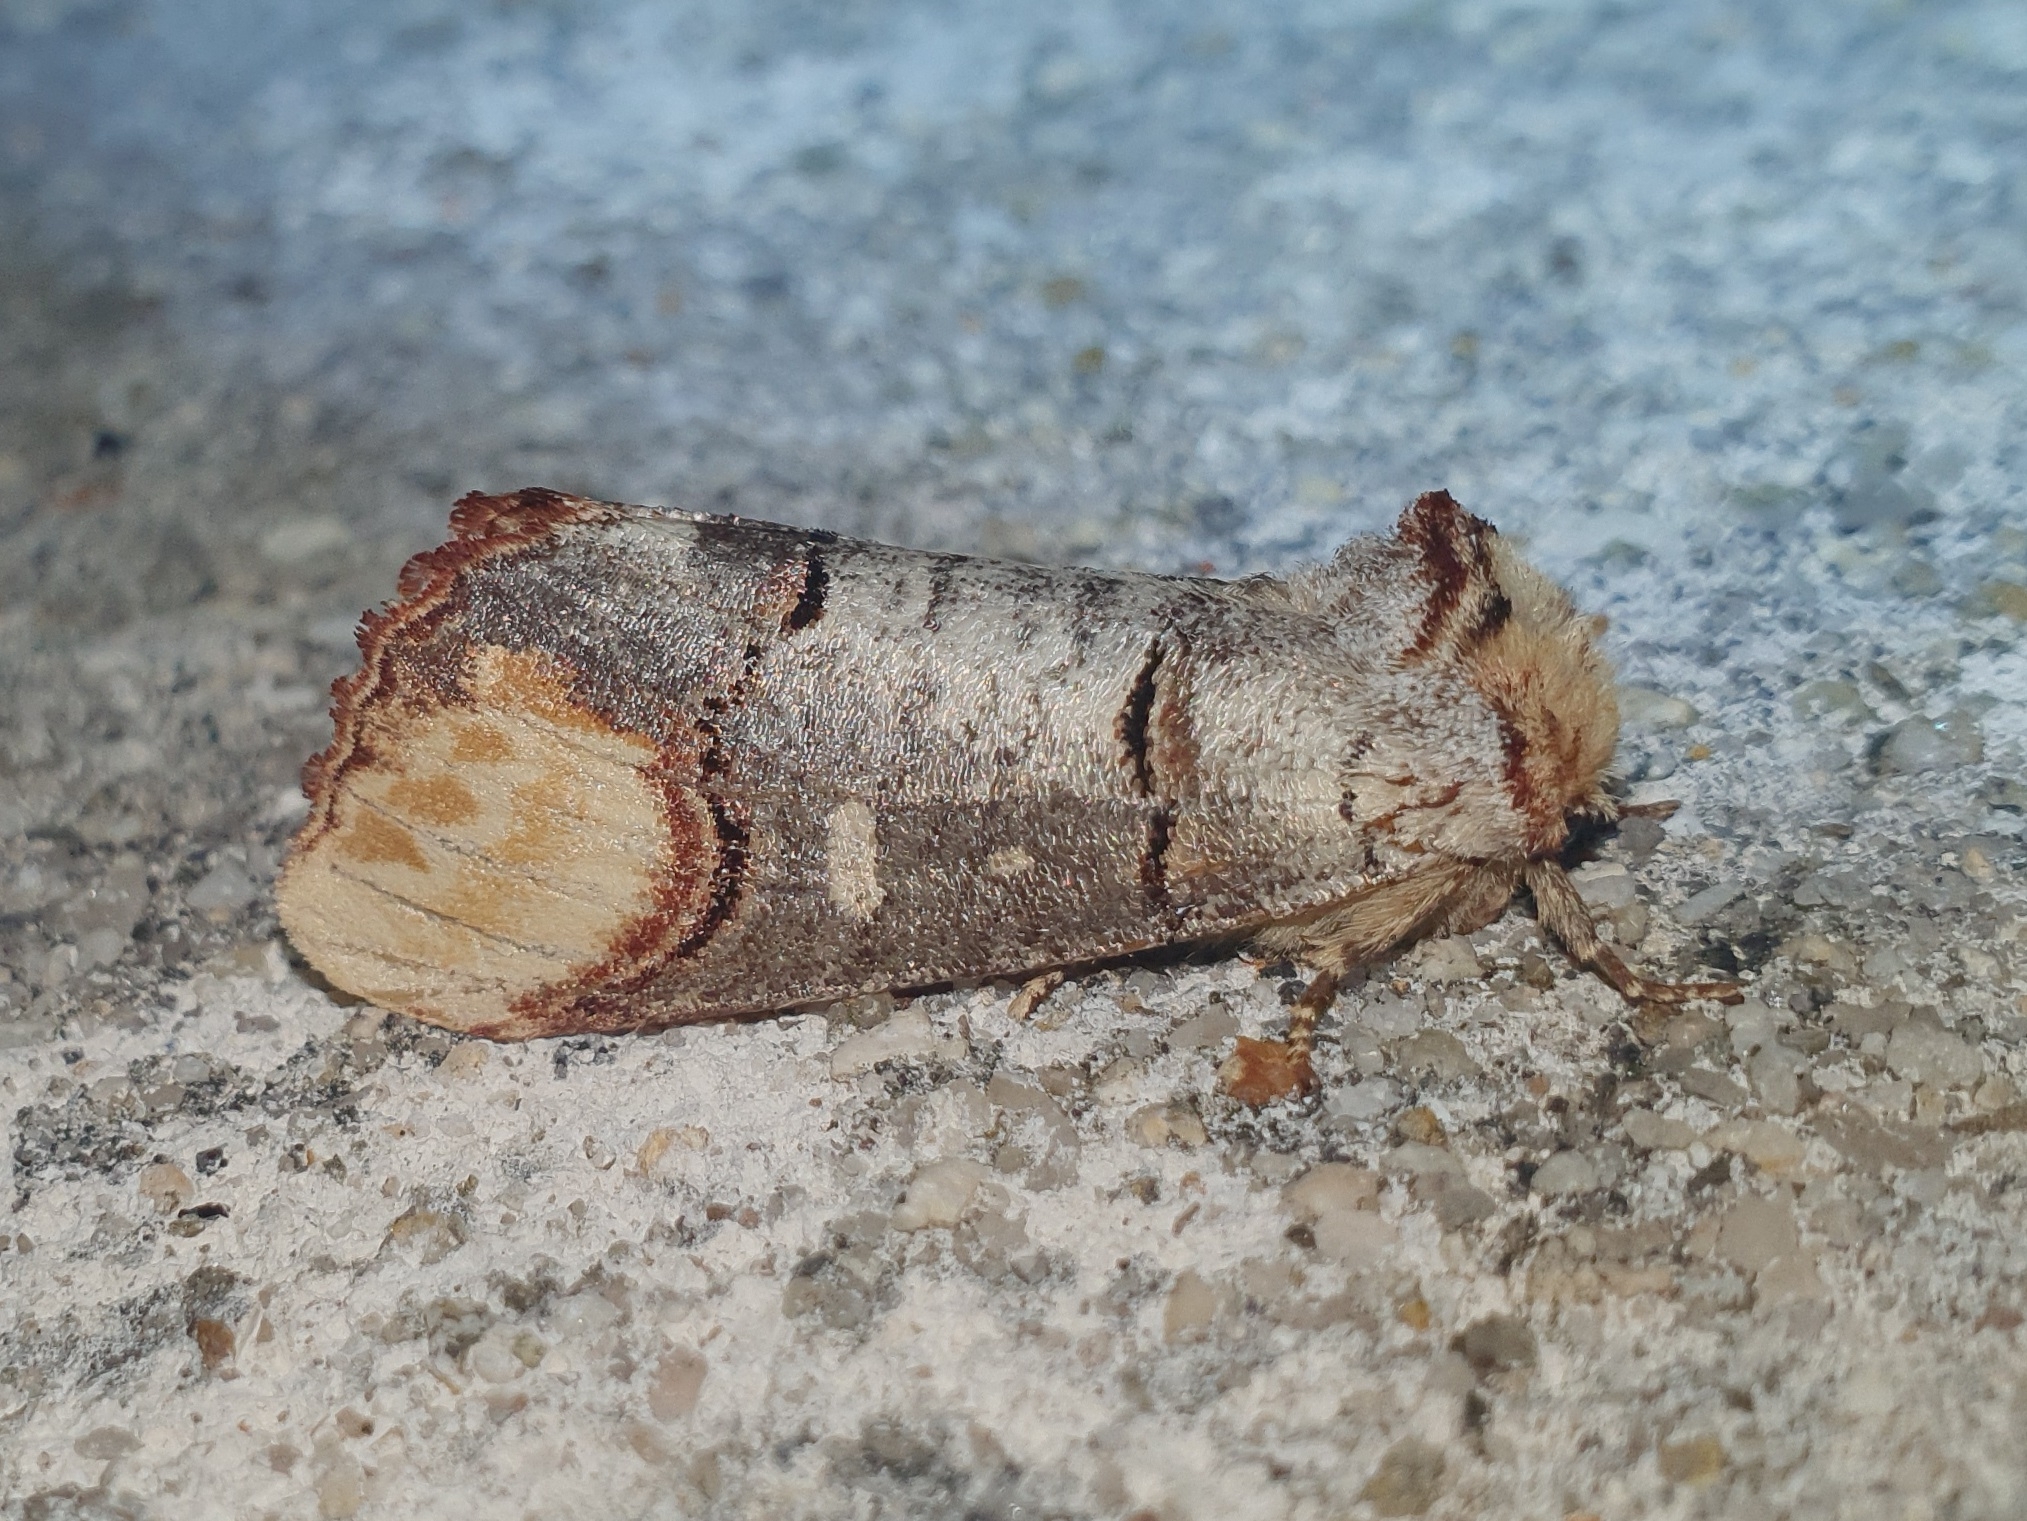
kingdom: Animalia
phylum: Arthropoda
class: Insecta
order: Lepidoptera
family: Notodontidae
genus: Phalera
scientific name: Phalera bucephala
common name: Buff-tip
